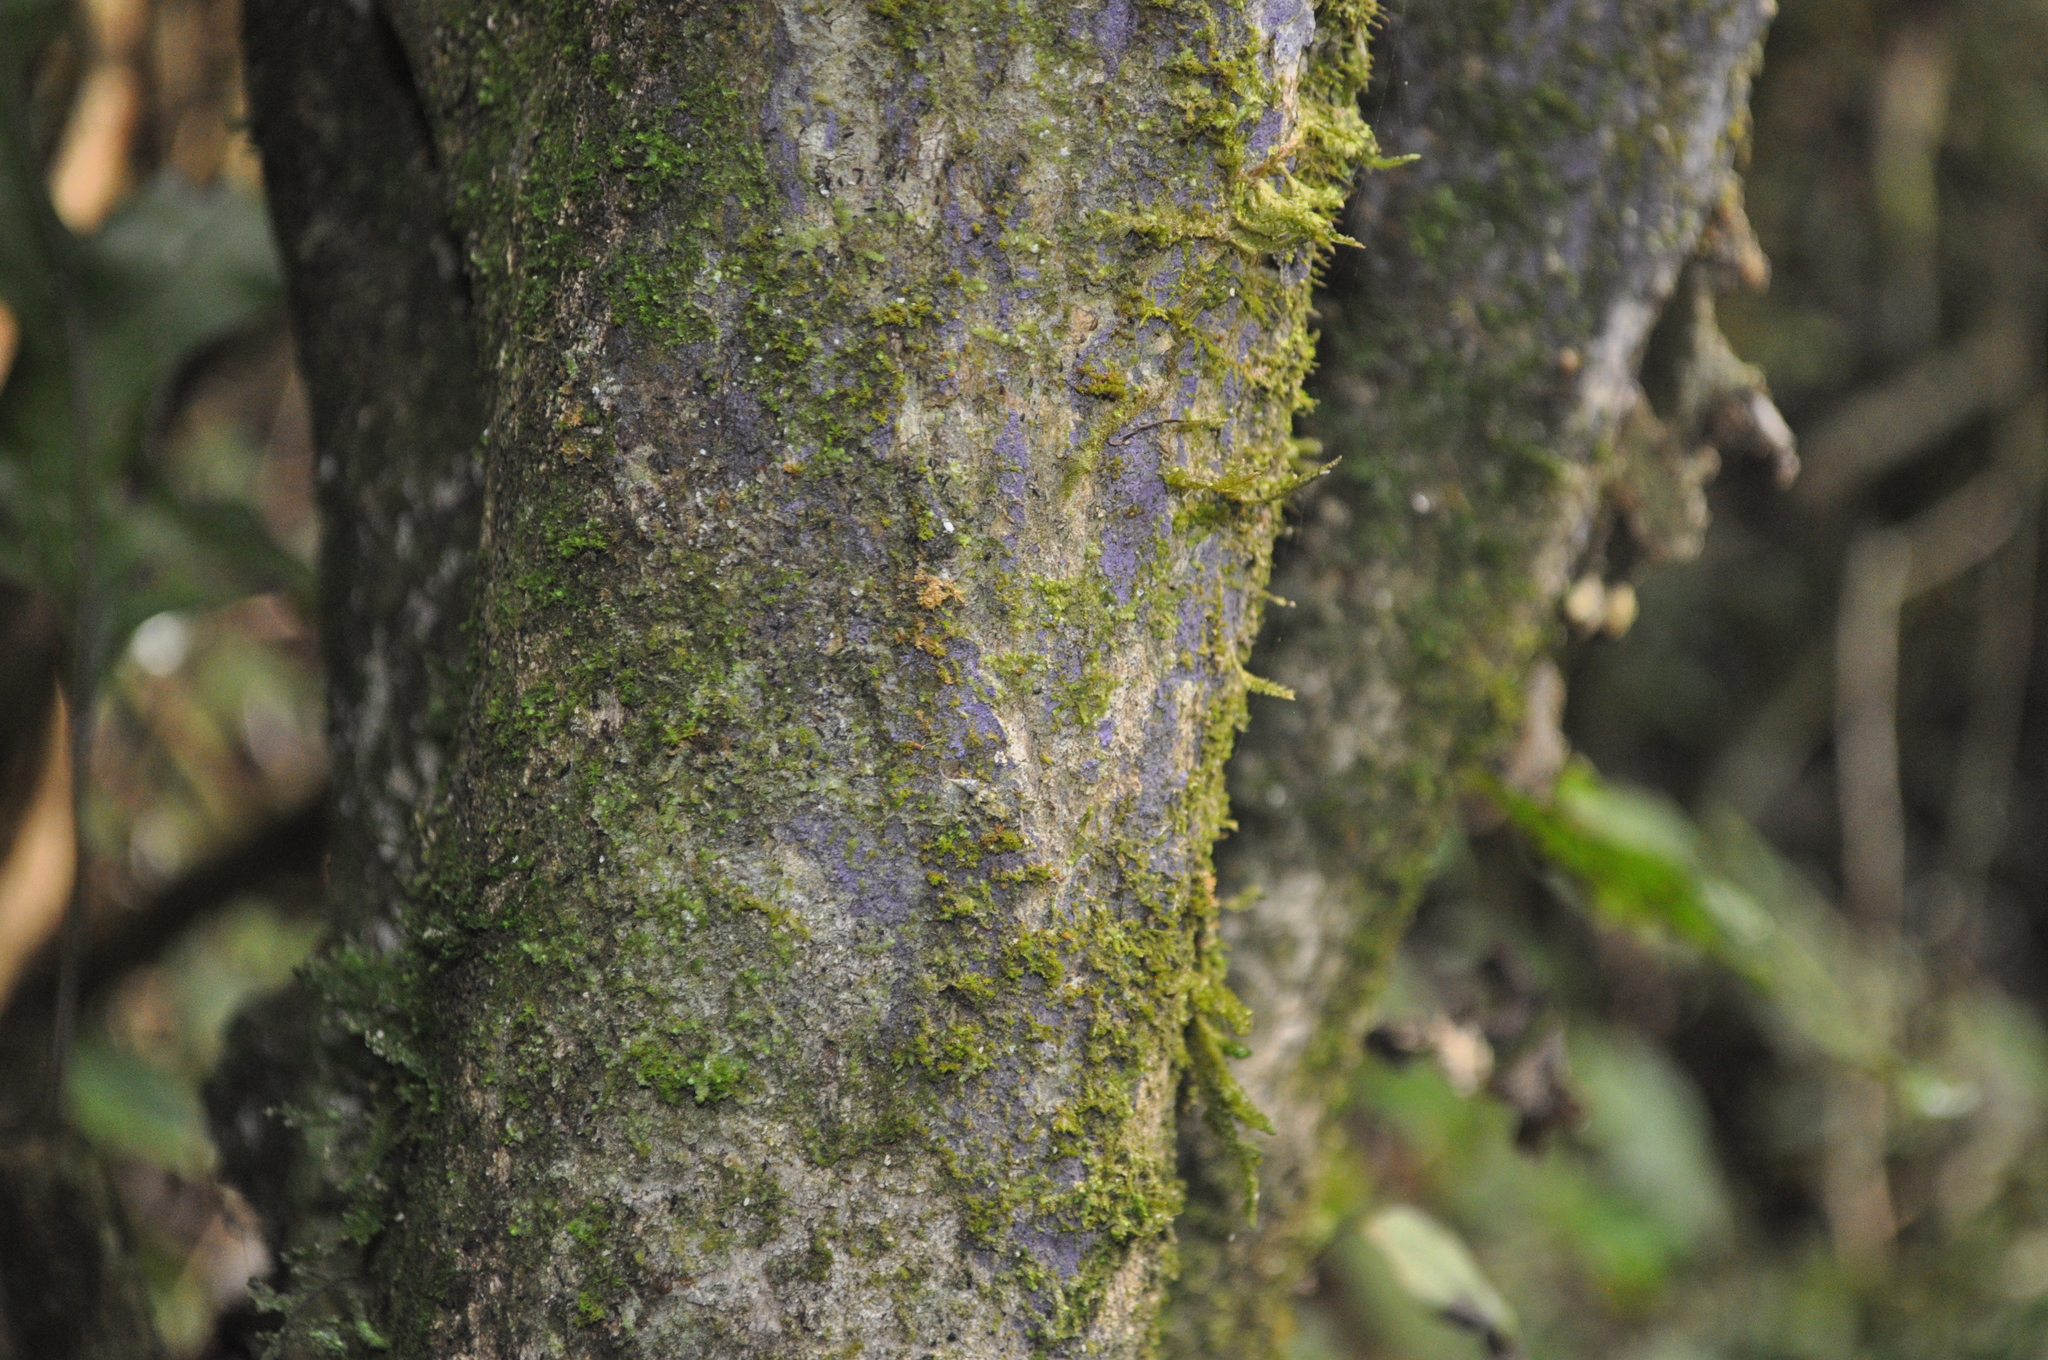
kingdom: Fungi
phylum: Basidiomycota
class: Agaricomycetes
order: Polyporales
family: Irpicaceae
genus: Byssomerulius
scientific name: Byssomerulius psittacinus
